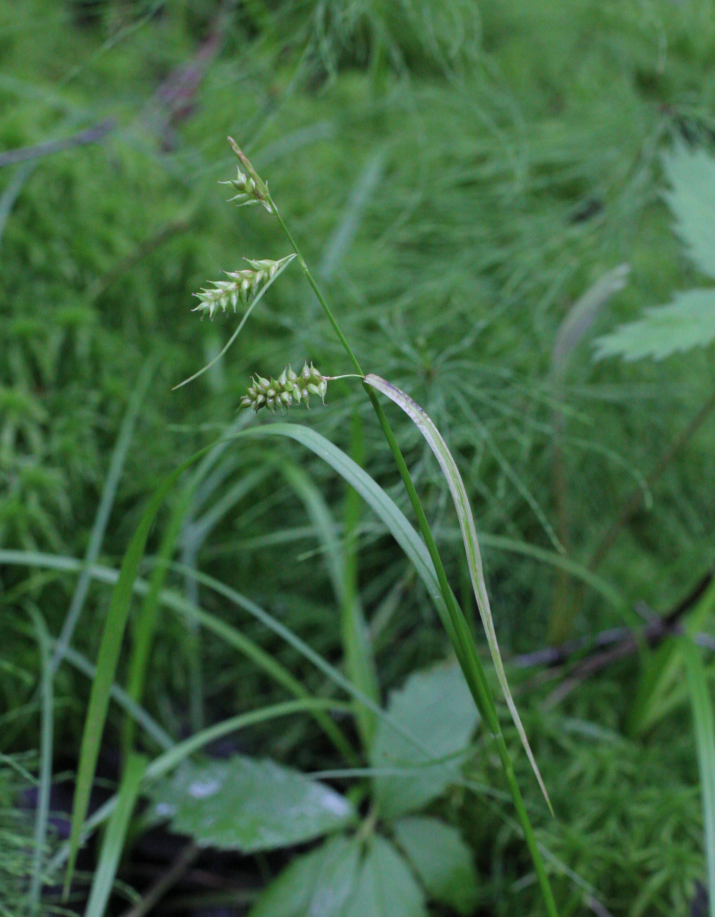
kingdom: Plantae
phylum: Tracheophyta
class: Liliopsida
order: Poales
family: Cyperaceae
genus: Carex
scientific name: Carex pallescens
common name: Pale sedge
